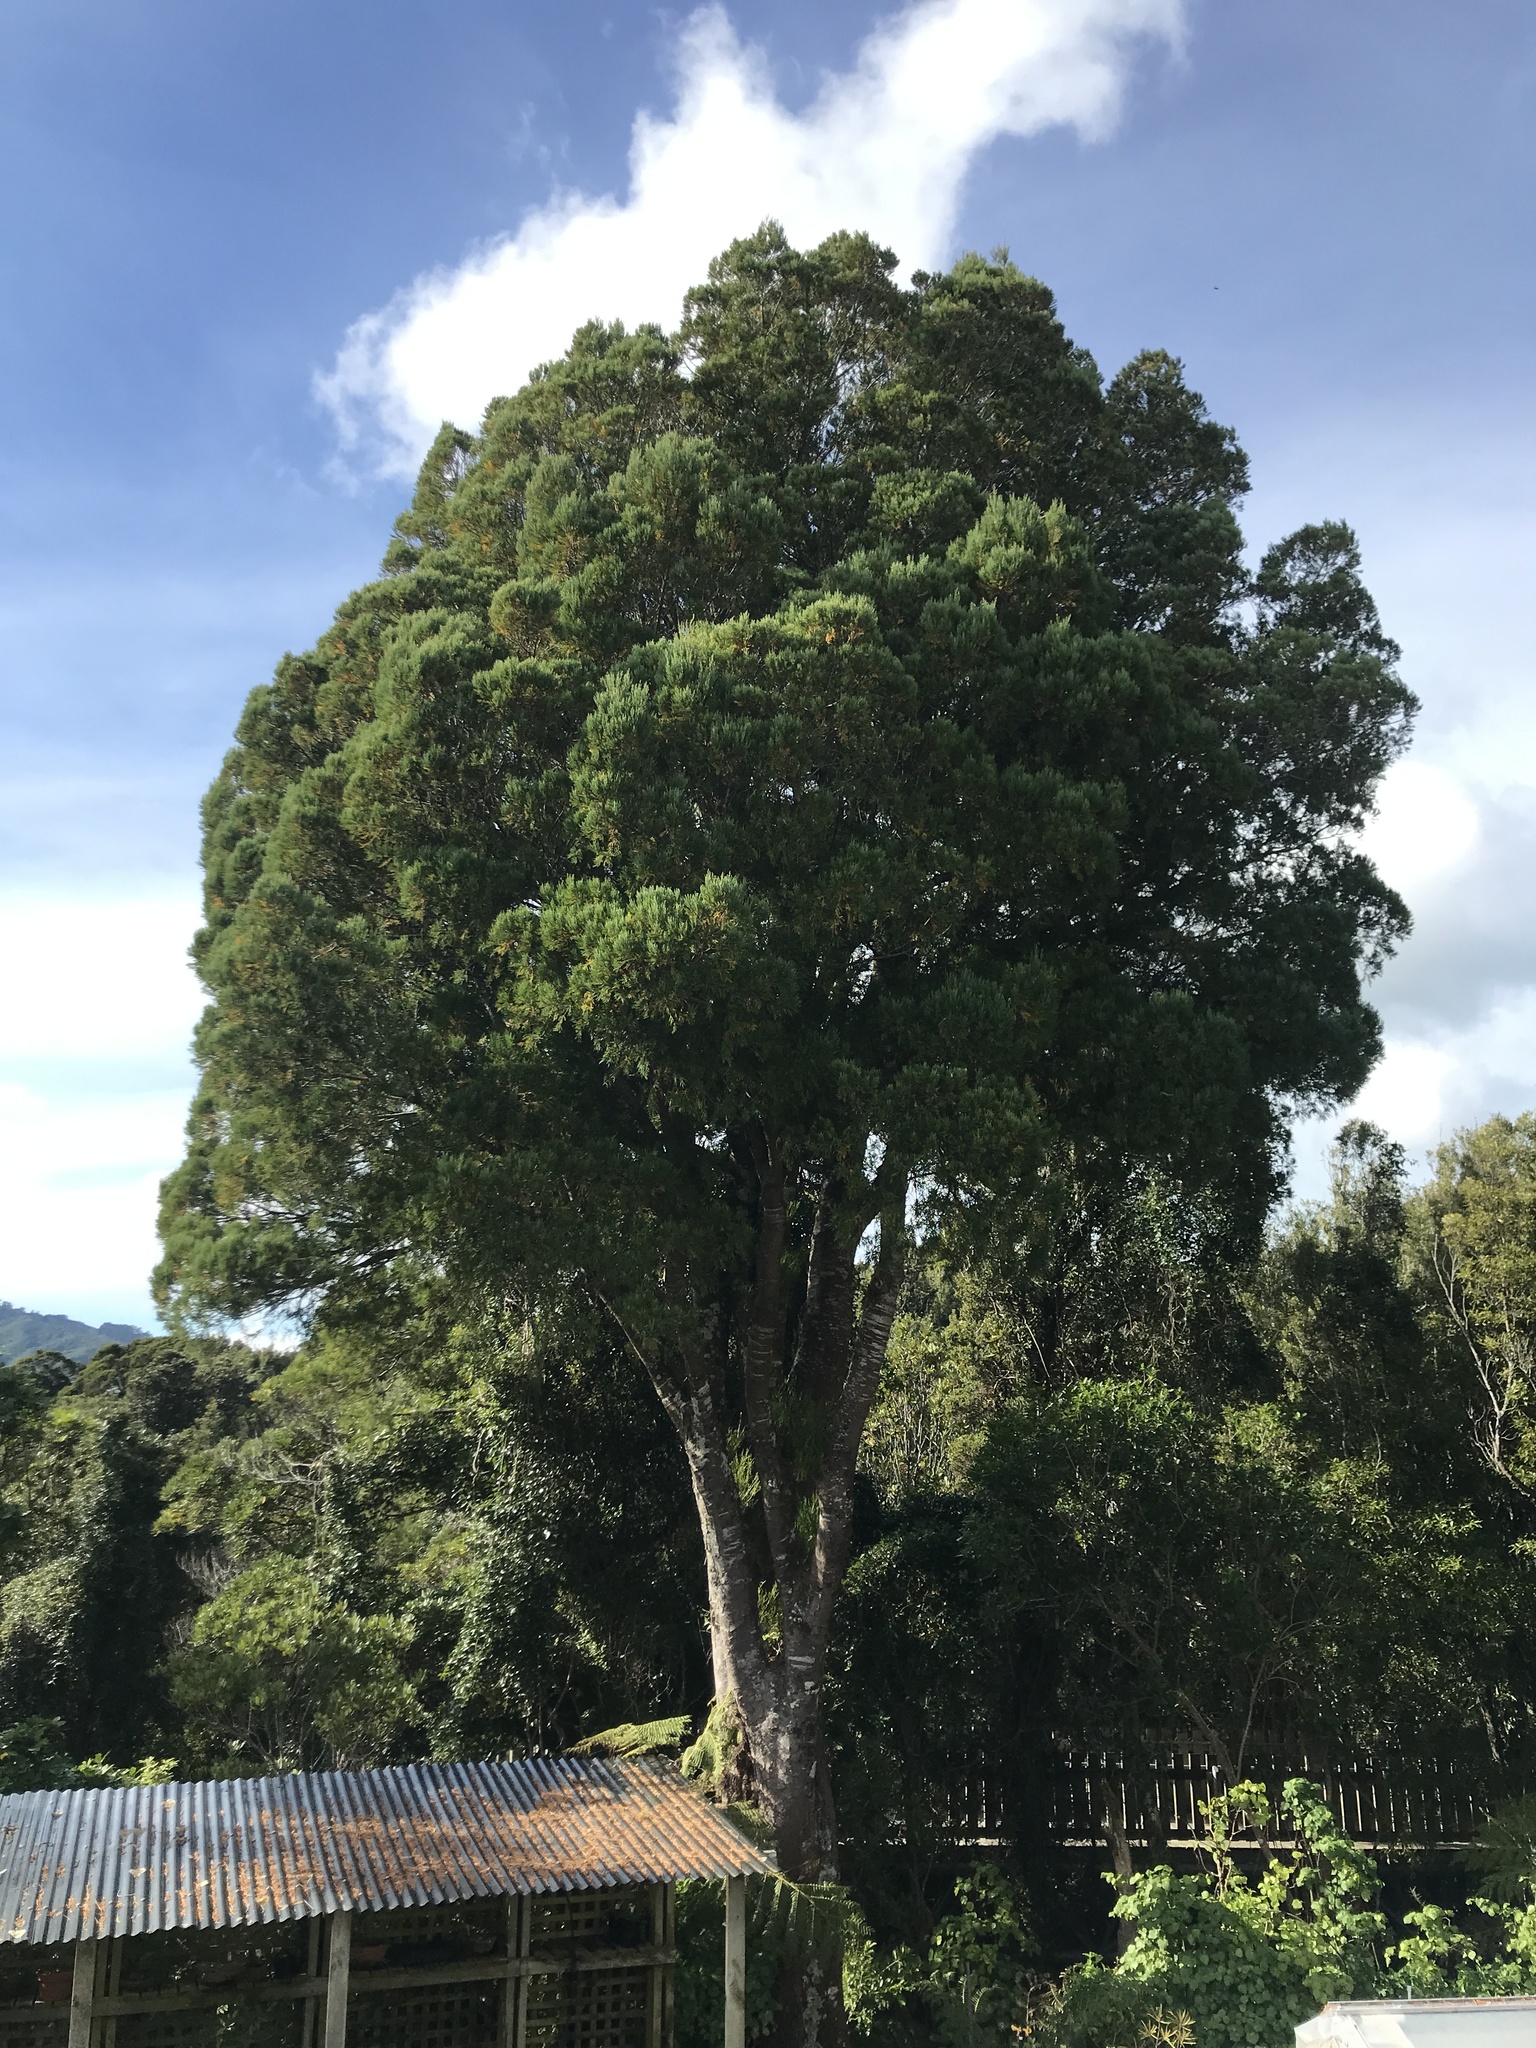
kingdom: Plantae
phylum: Tracheophyta
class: Pinopsida
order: Pinales
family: Podocarpaceae
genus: Dacrycarpus
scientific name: Dacrycarpus dacrydioides
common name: White pine
